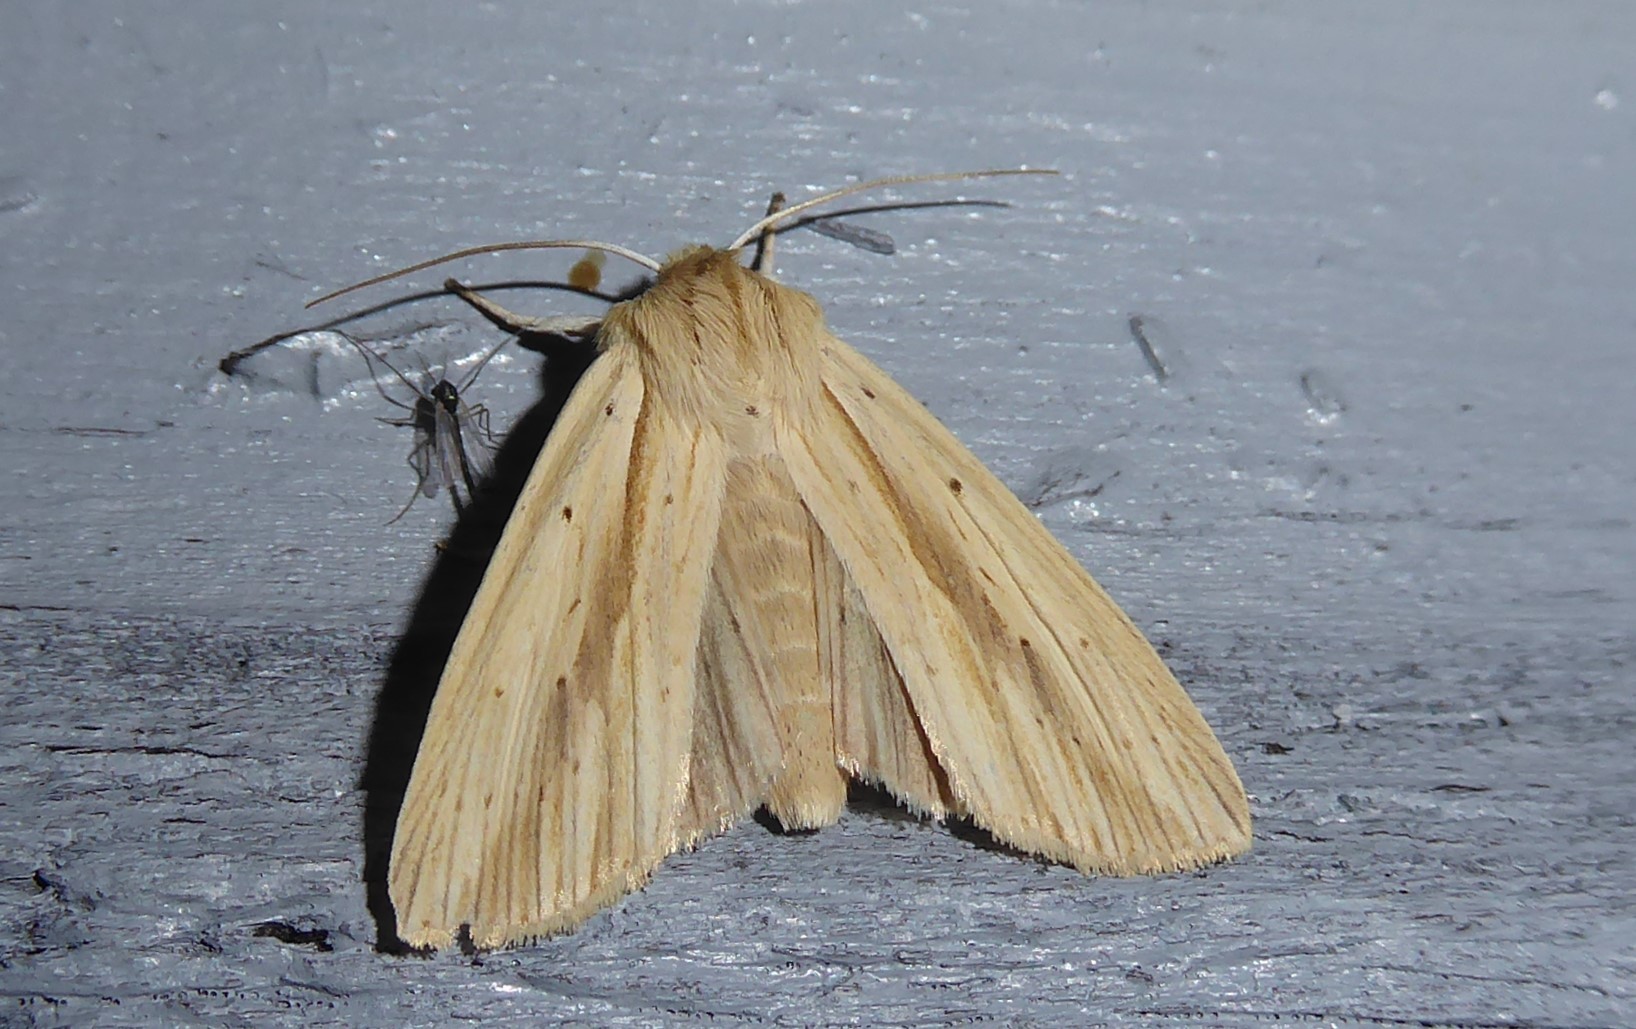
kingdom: Animalia
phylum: Arthropoda
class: Insecta
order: Lepidoptera
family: Noctuidae
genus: Ichneutica
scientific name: Ichneutica semivittata
